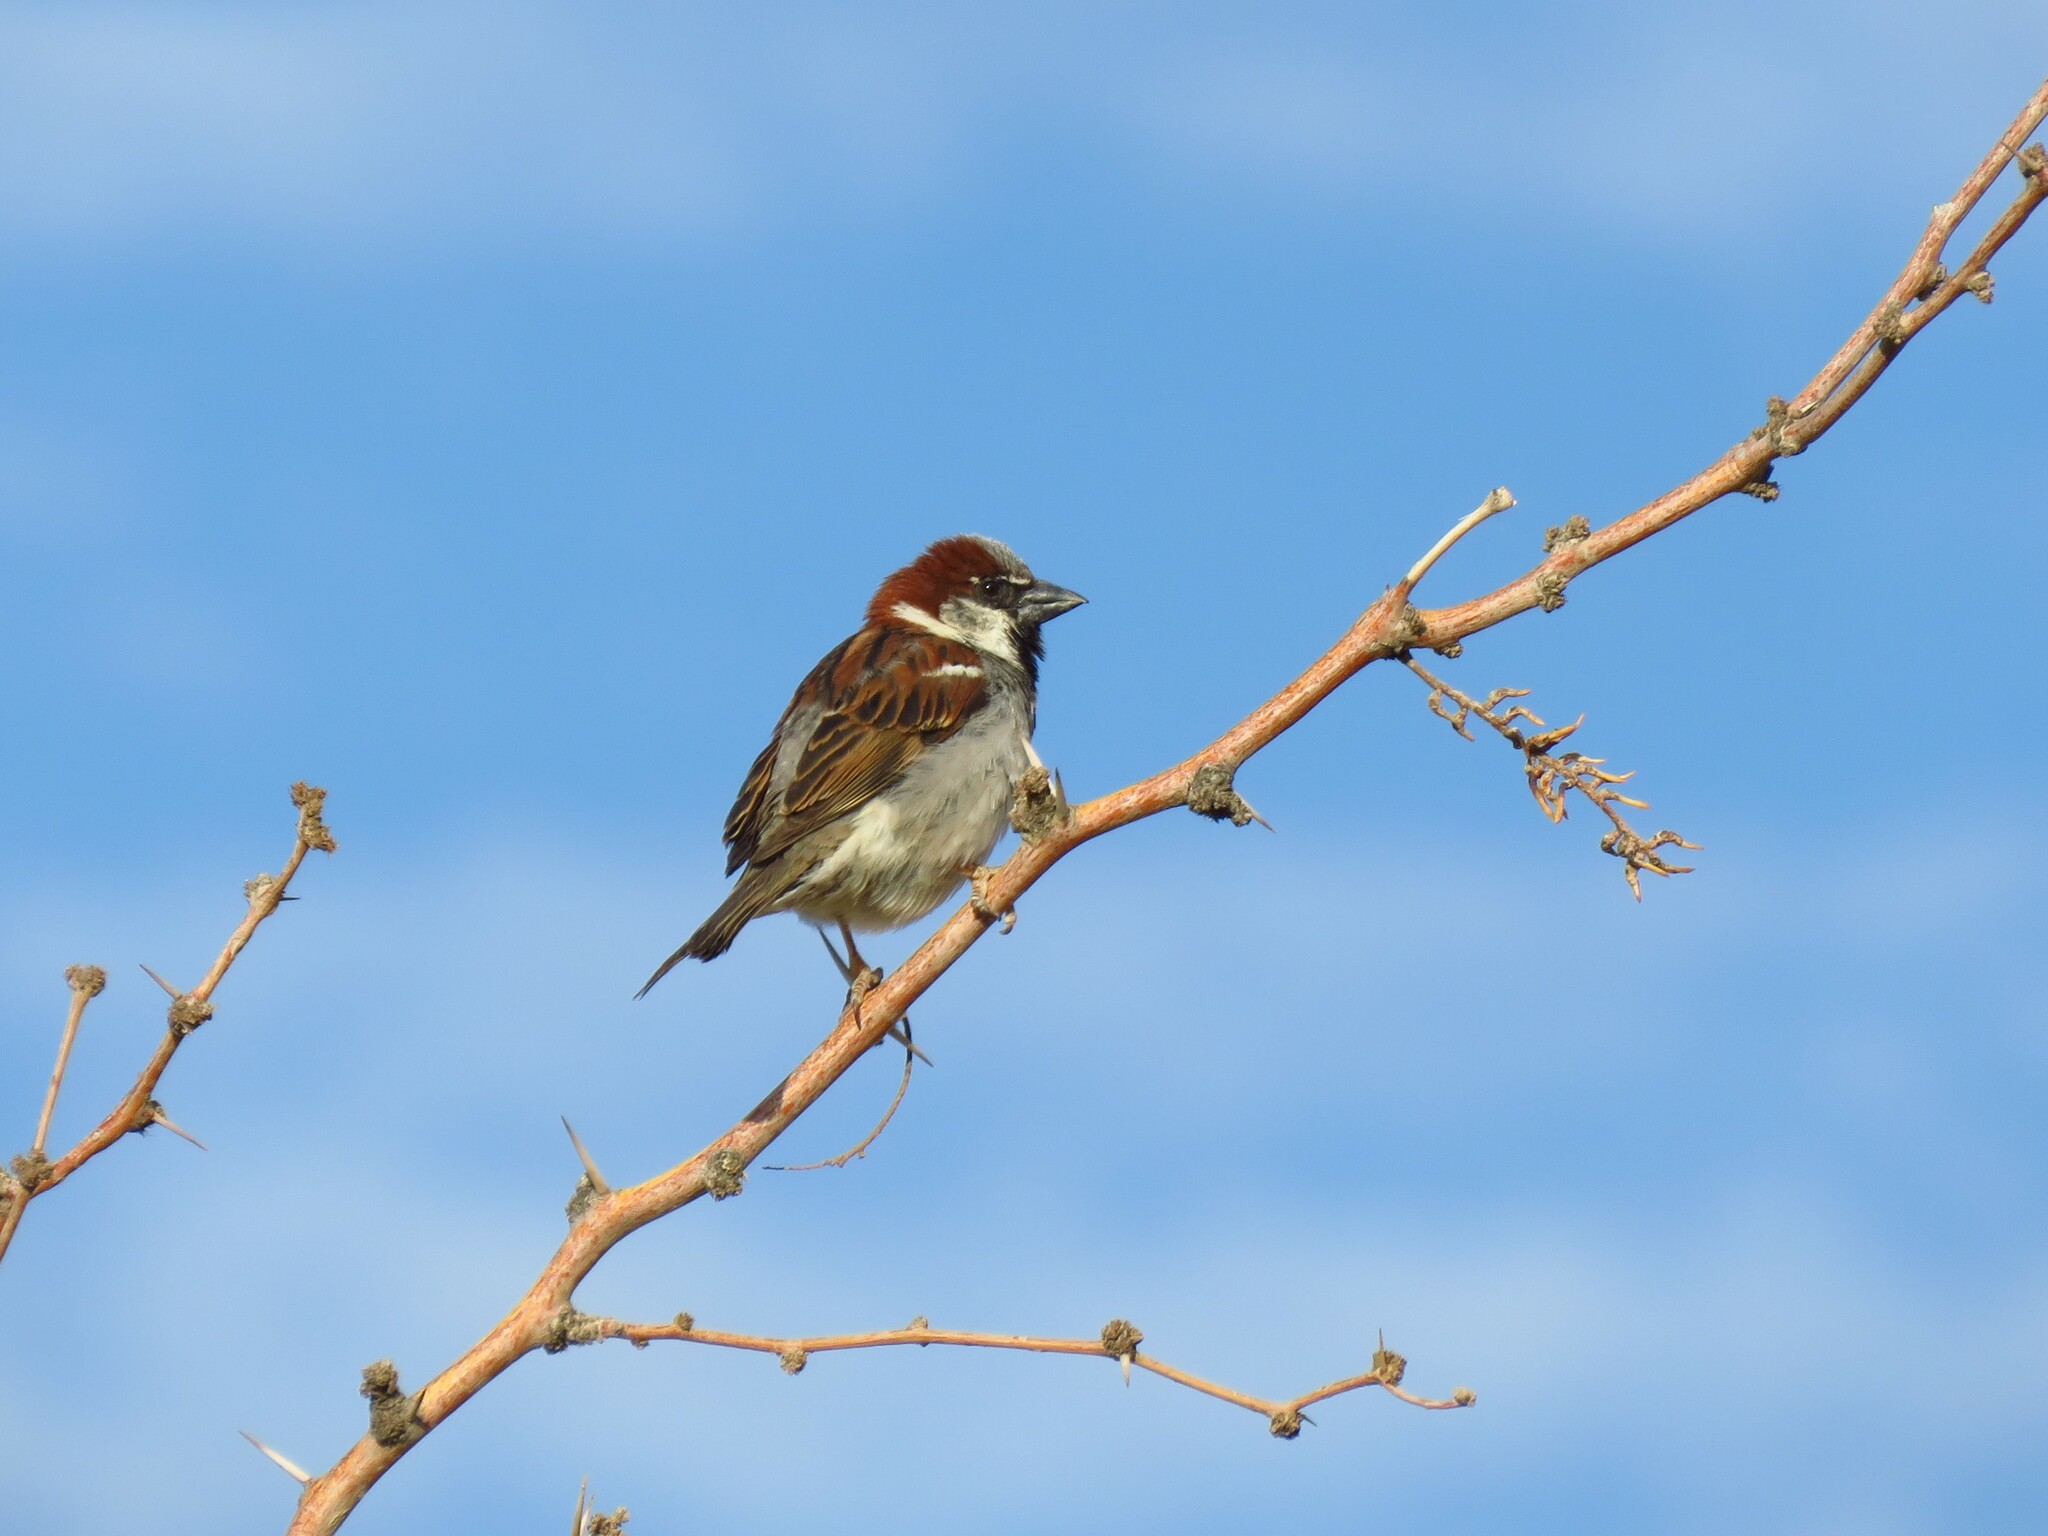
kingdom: Animalia
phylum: Chordata
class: Aves
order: Passeriformes
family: Passeridae
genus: Passer
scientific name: Passer domesticus
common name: House sparrow
